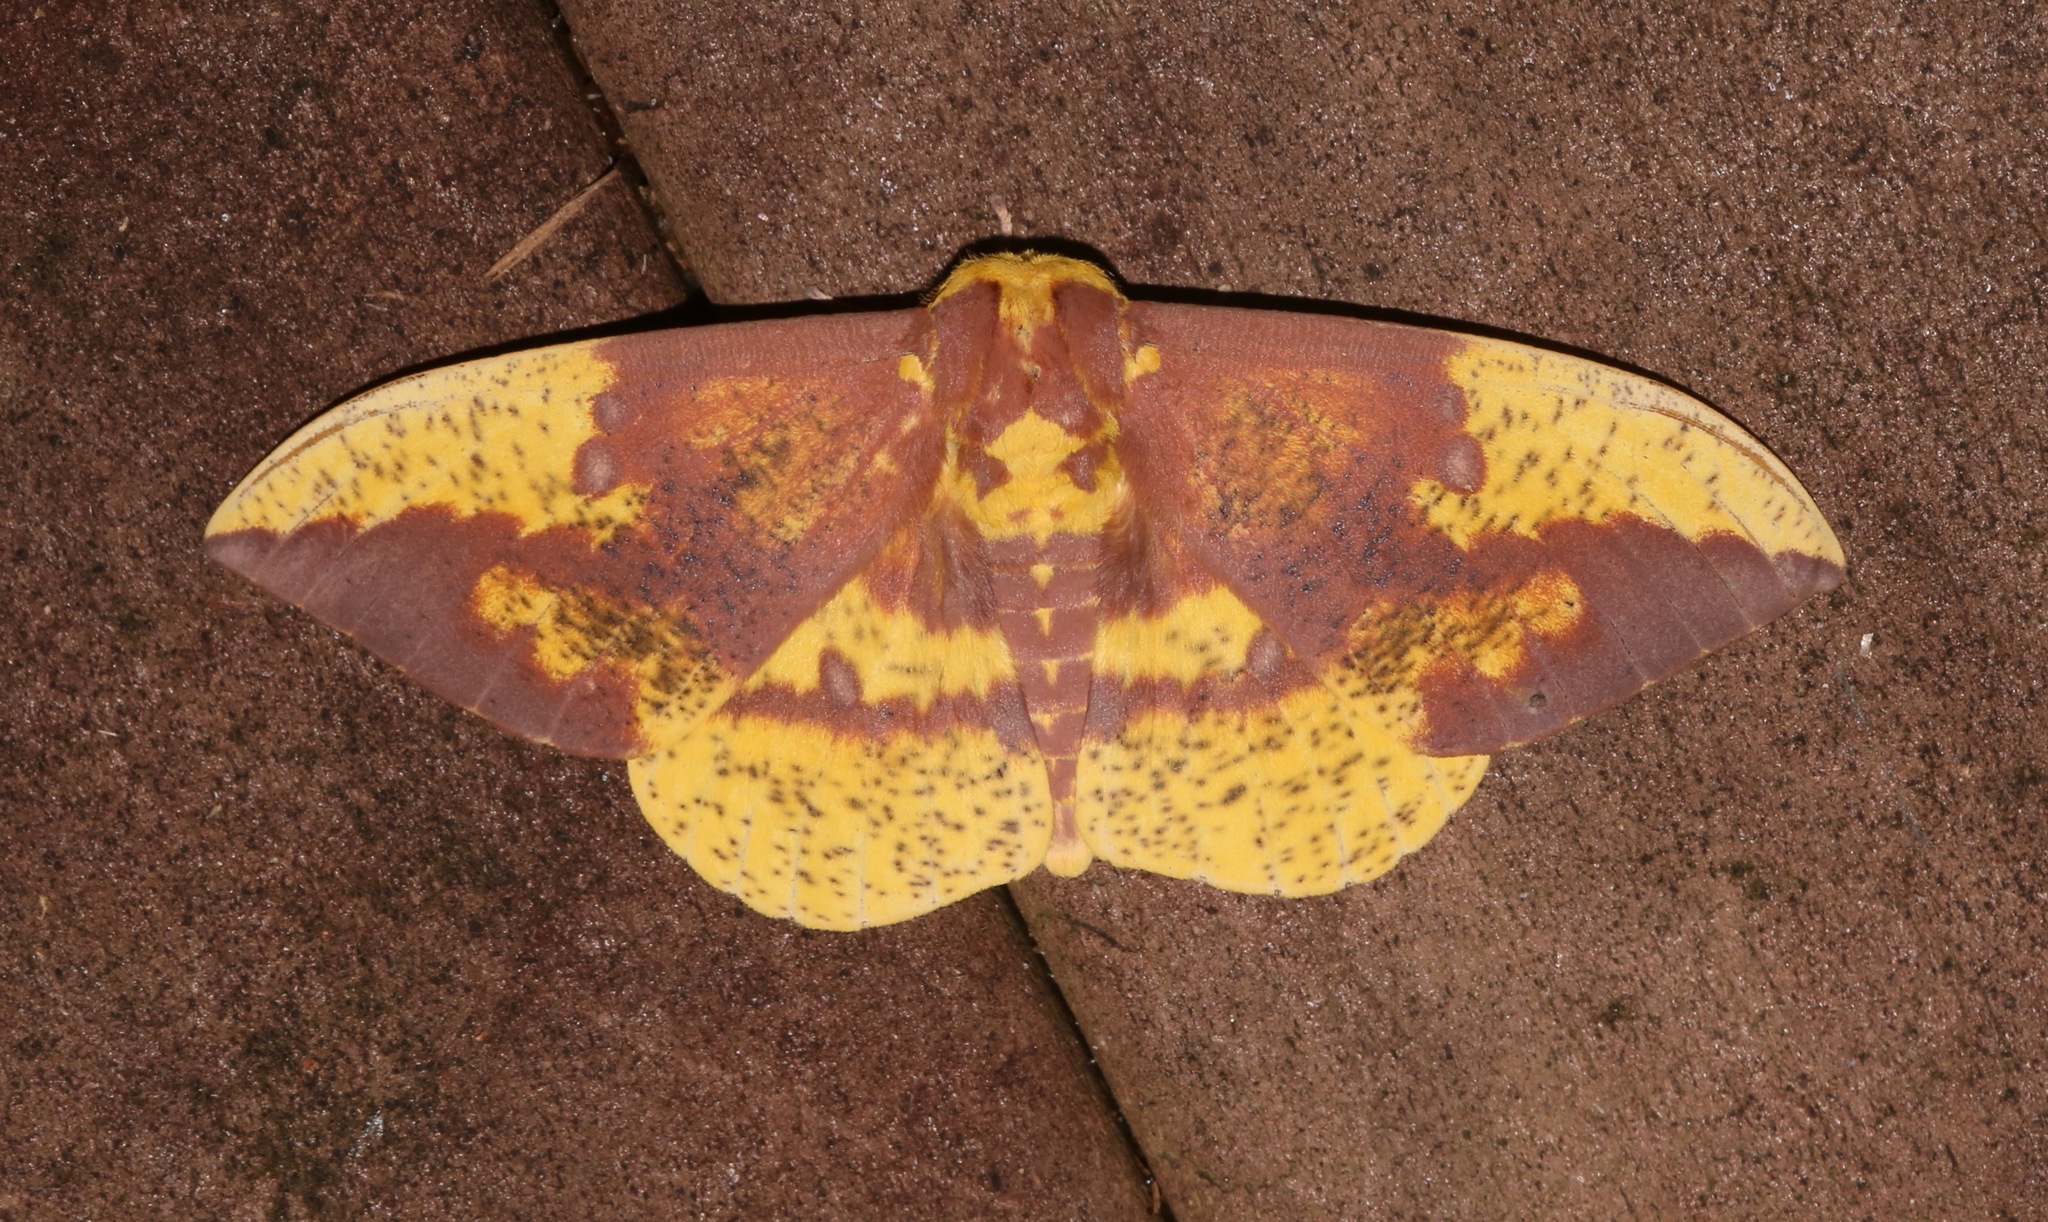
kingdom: Animalia
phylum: Arthropoda
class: Insecta
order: Lepidoptera
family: Saturniidae
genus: Eacles
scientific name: Eacles imperialis
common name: Imperial moth
